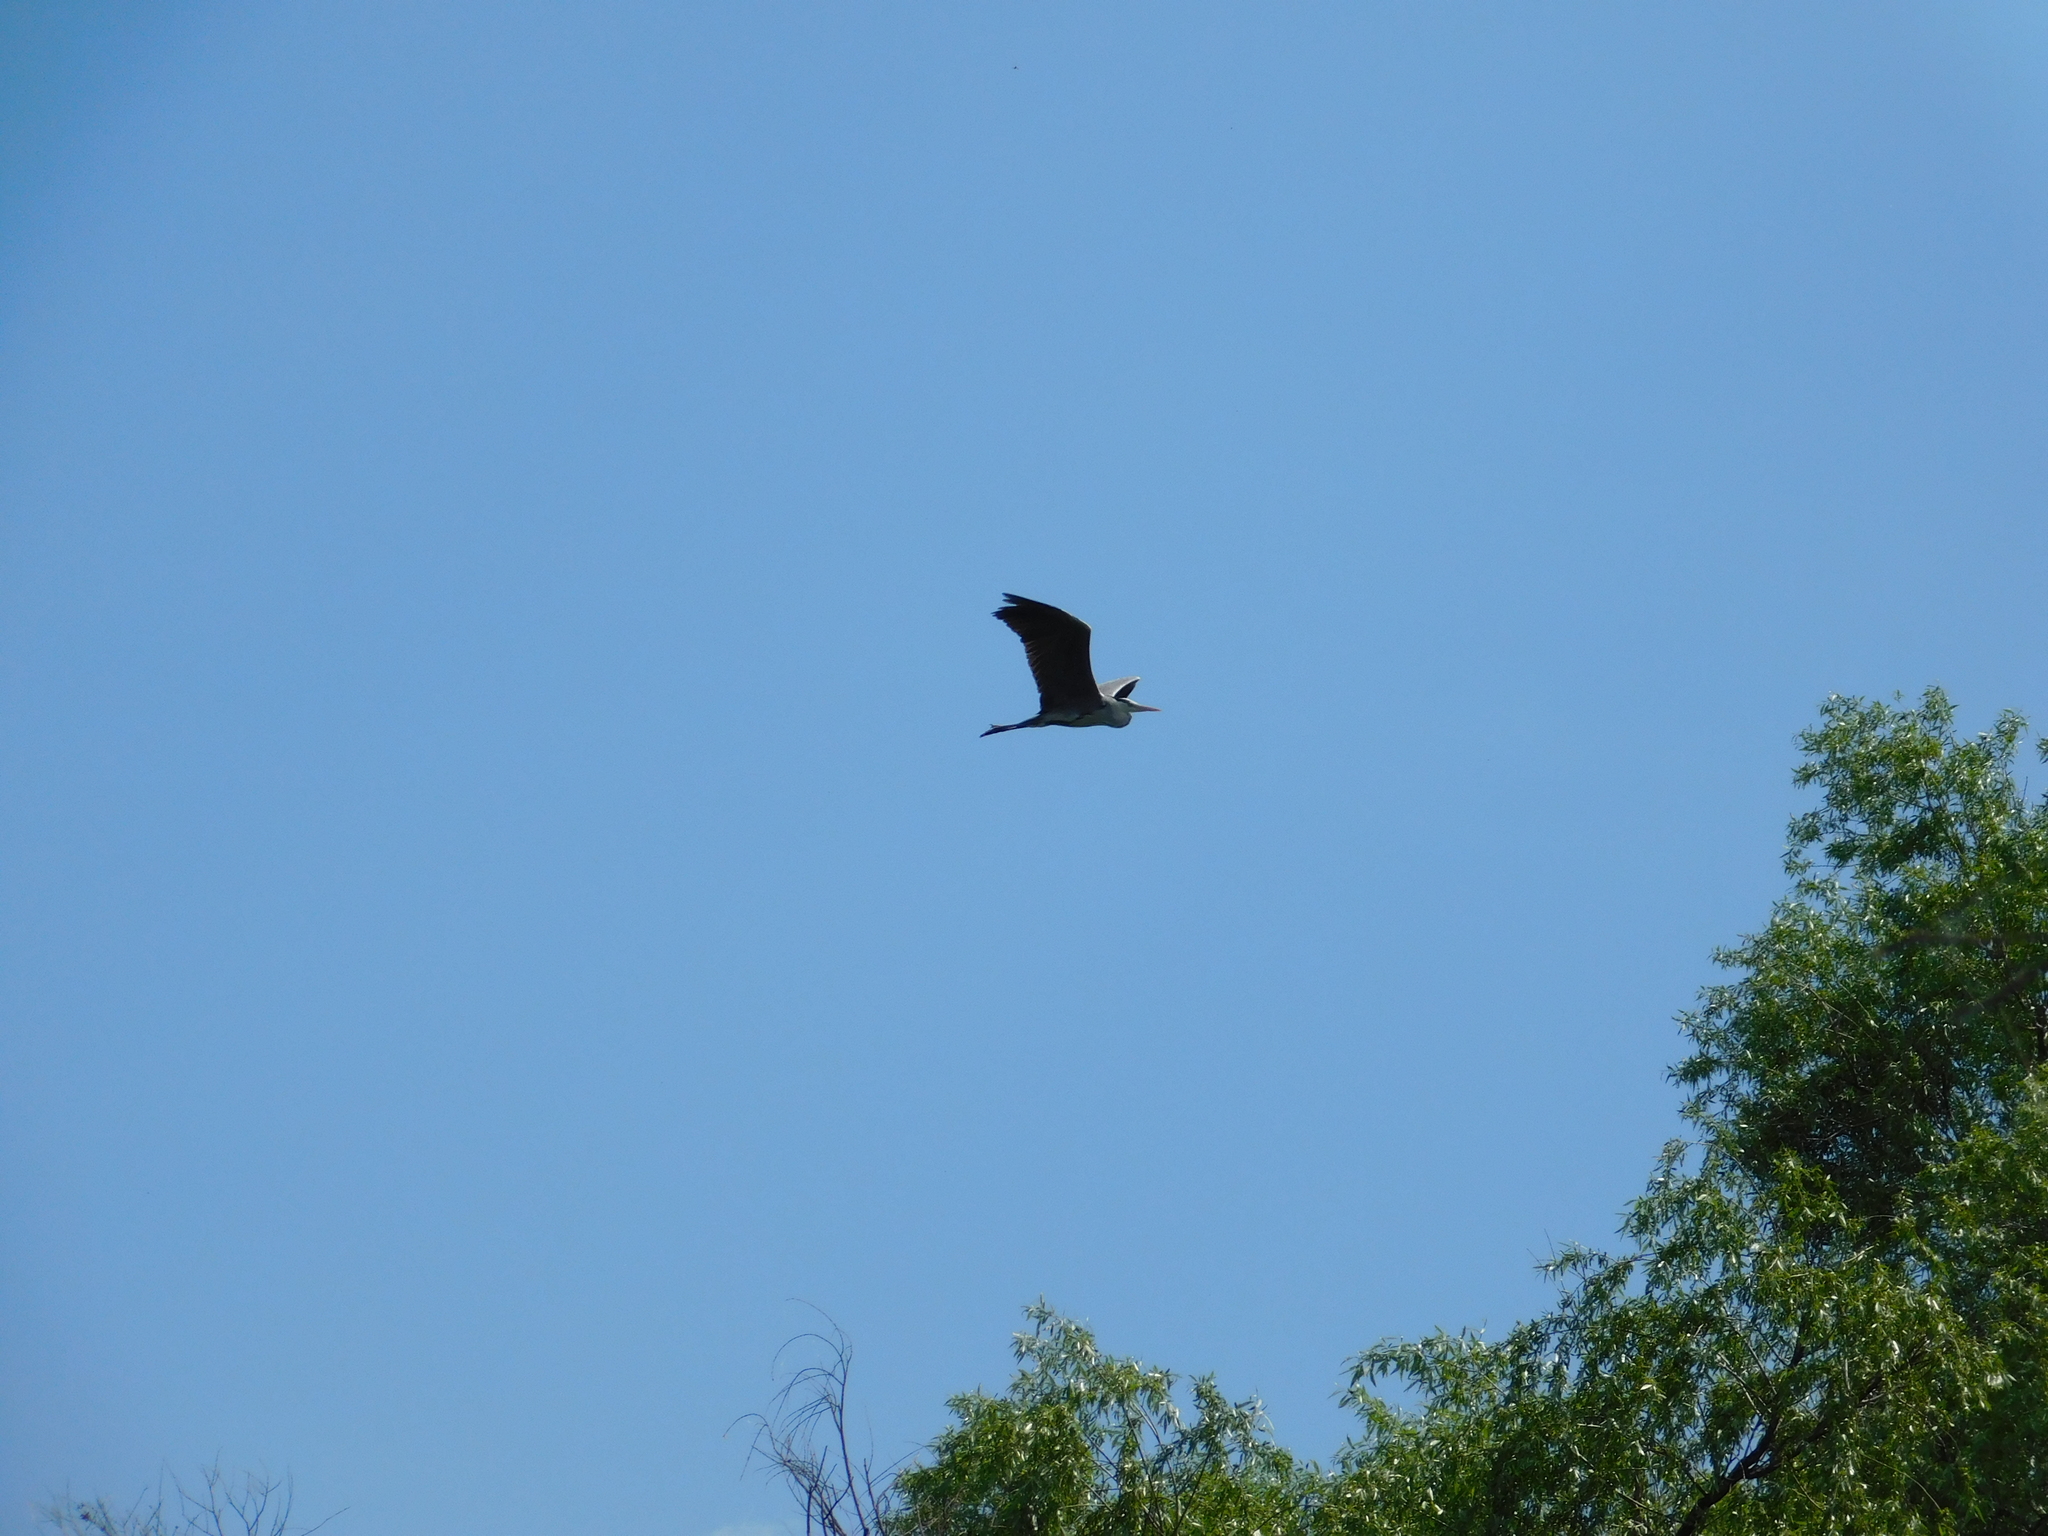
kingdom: Animalia
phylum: Chordata
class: Aves
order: Pelecaniformes
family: Ardeidae
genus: Ardea
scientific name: Ardea cinerea
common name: Grey heron
